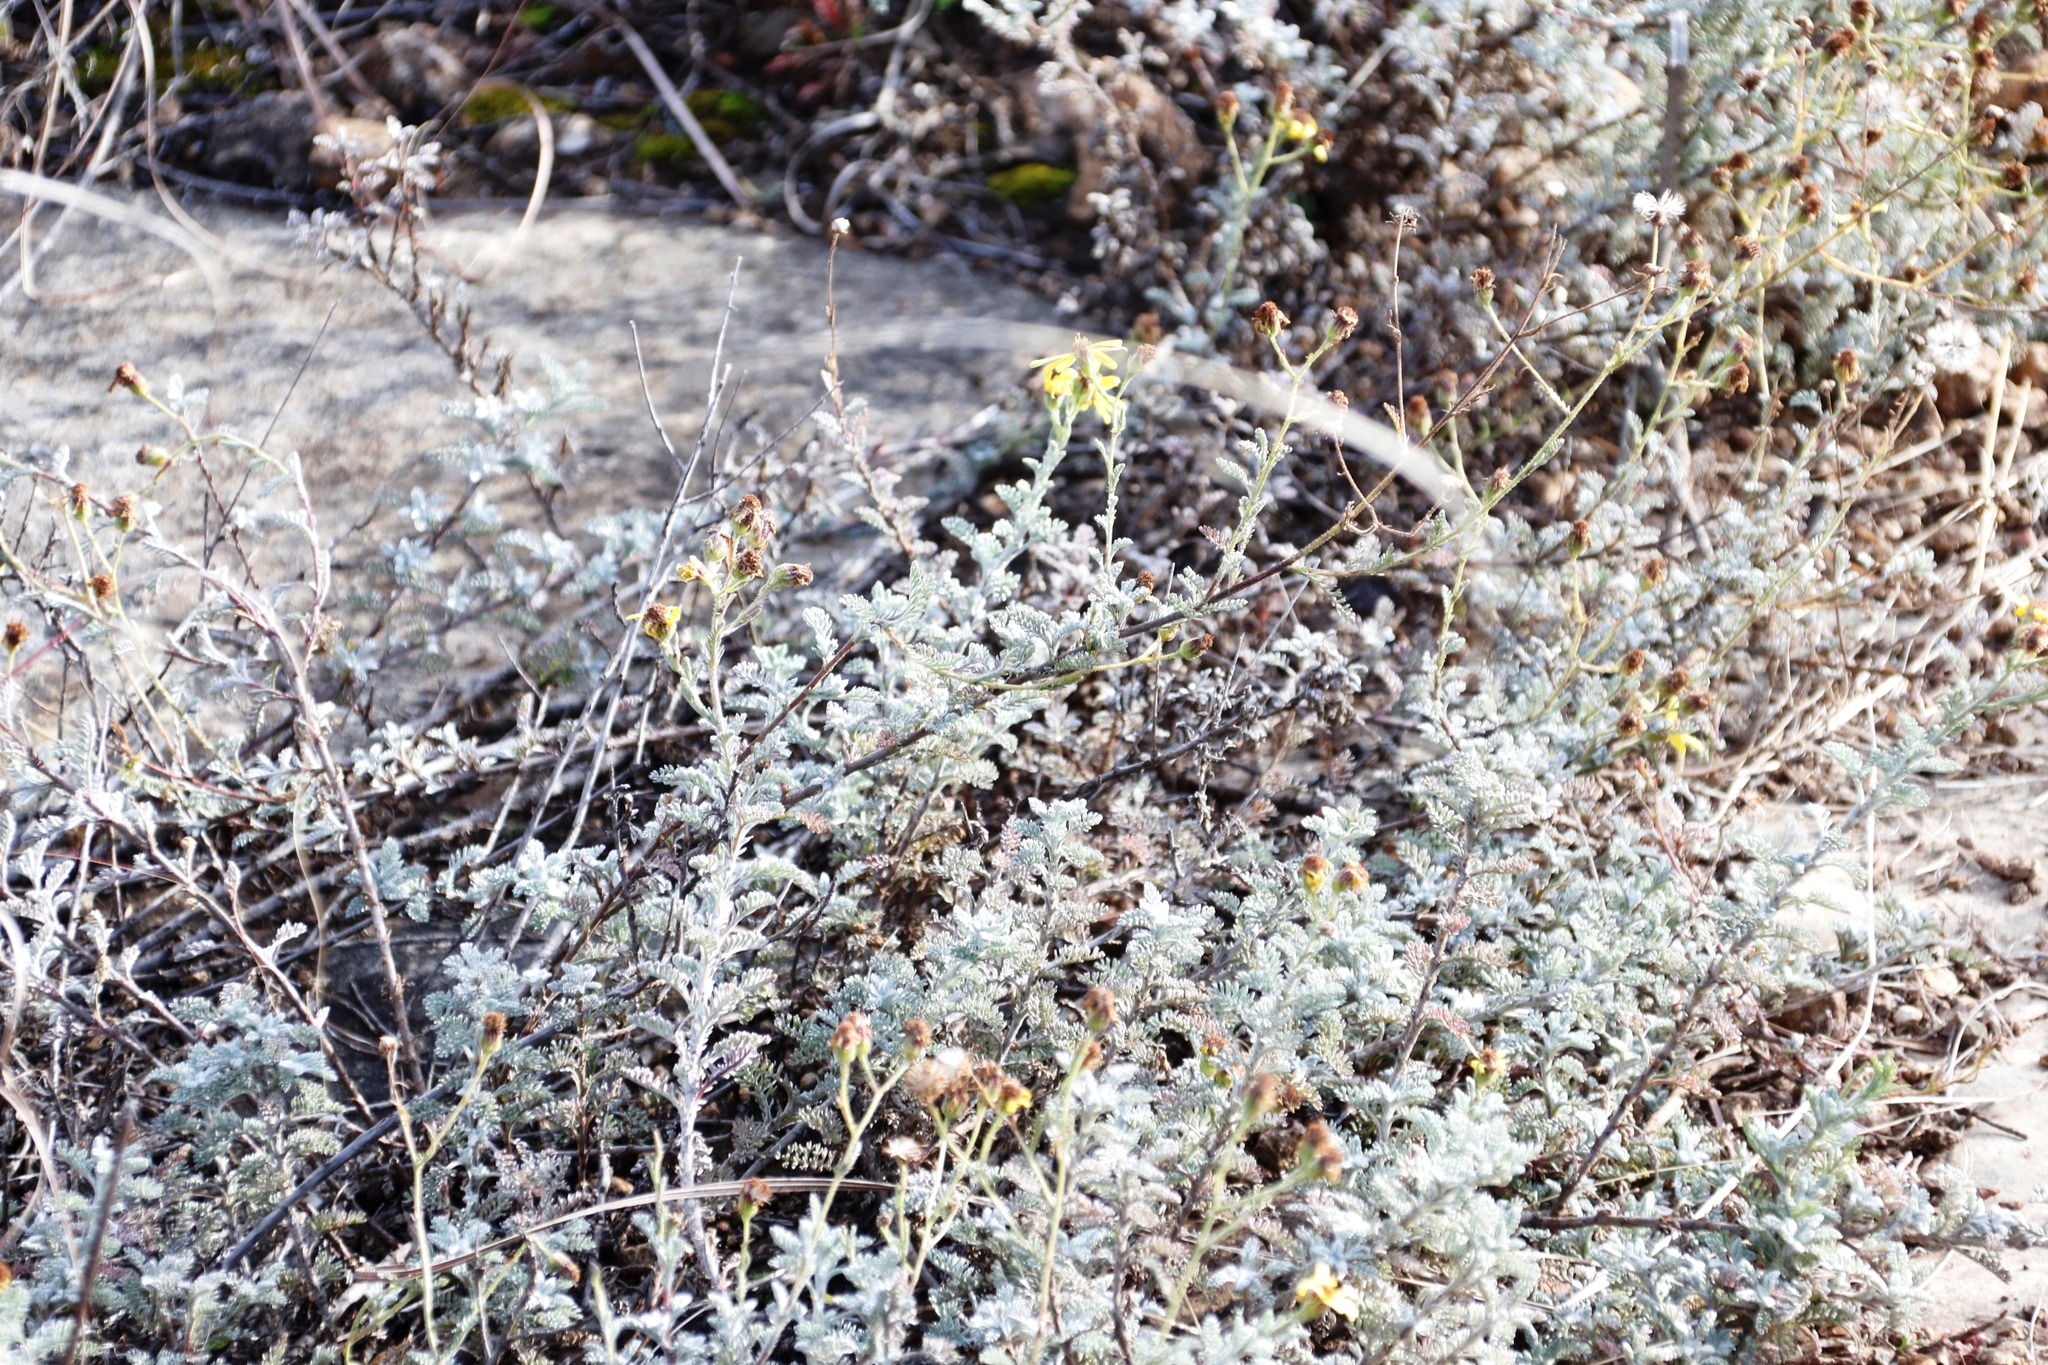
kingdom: Plantae
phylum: Tracheophyta
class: Magnoliopsida
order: Asterales
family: Asteraceae
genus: Senecio
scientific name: Senecio seminiveus
